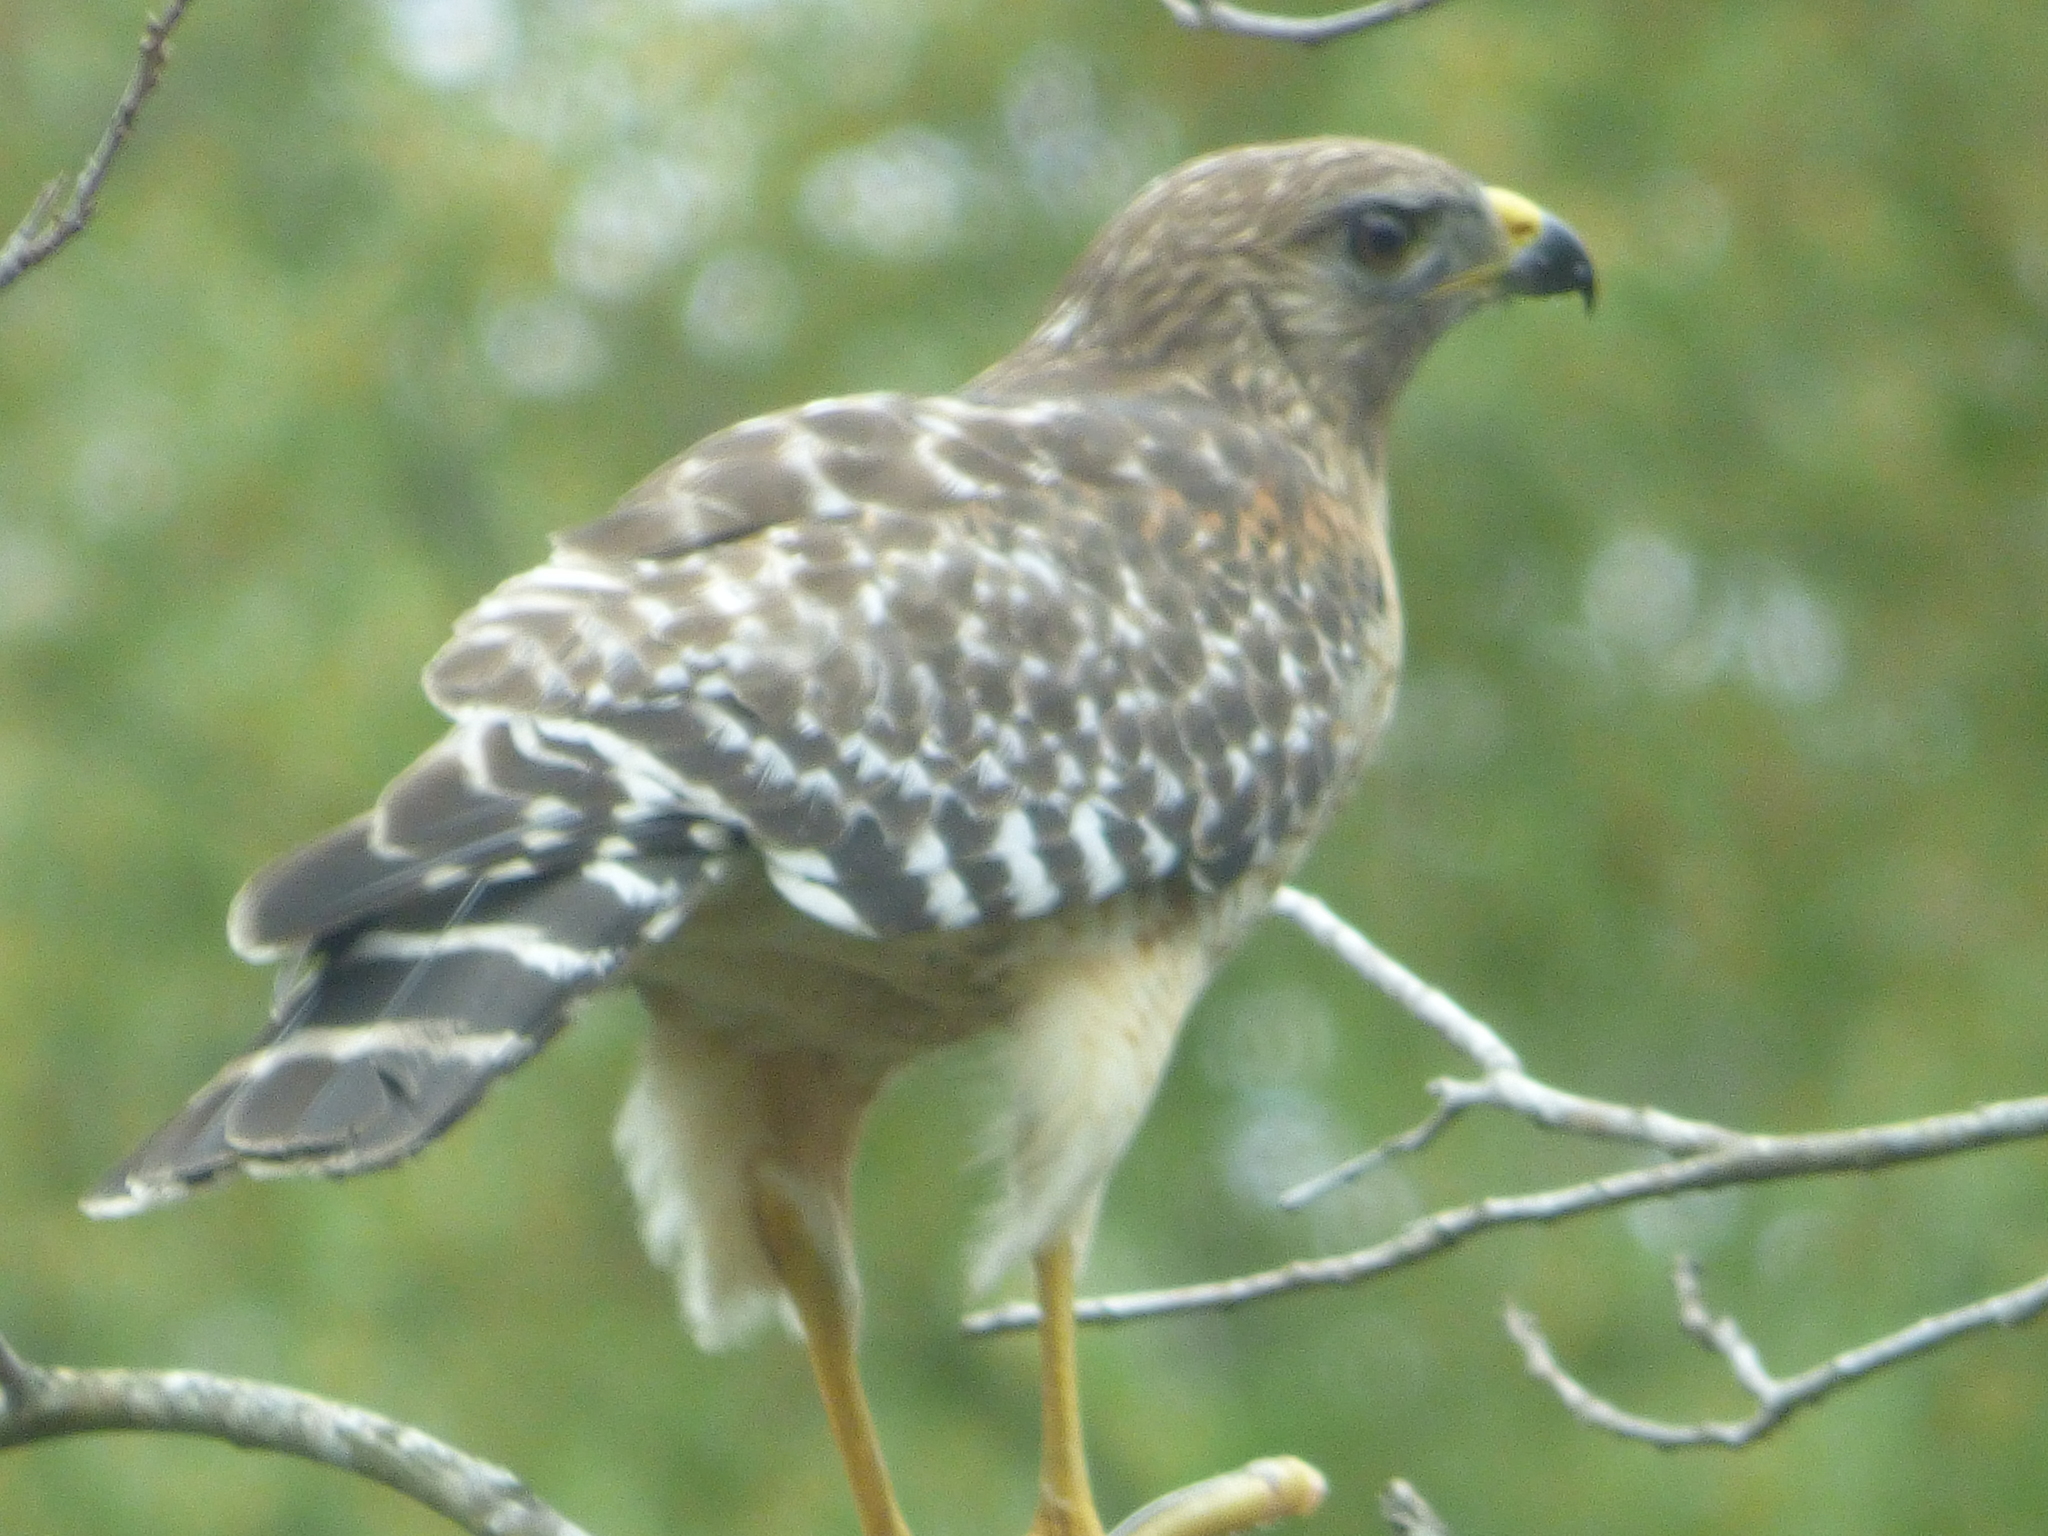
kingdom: Animalia
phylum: Chordata
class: Aves
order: Accipitriformes
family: Accipitridae
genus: Buteo
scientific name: Buteo lineatus
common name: Red-shouldered hawk
